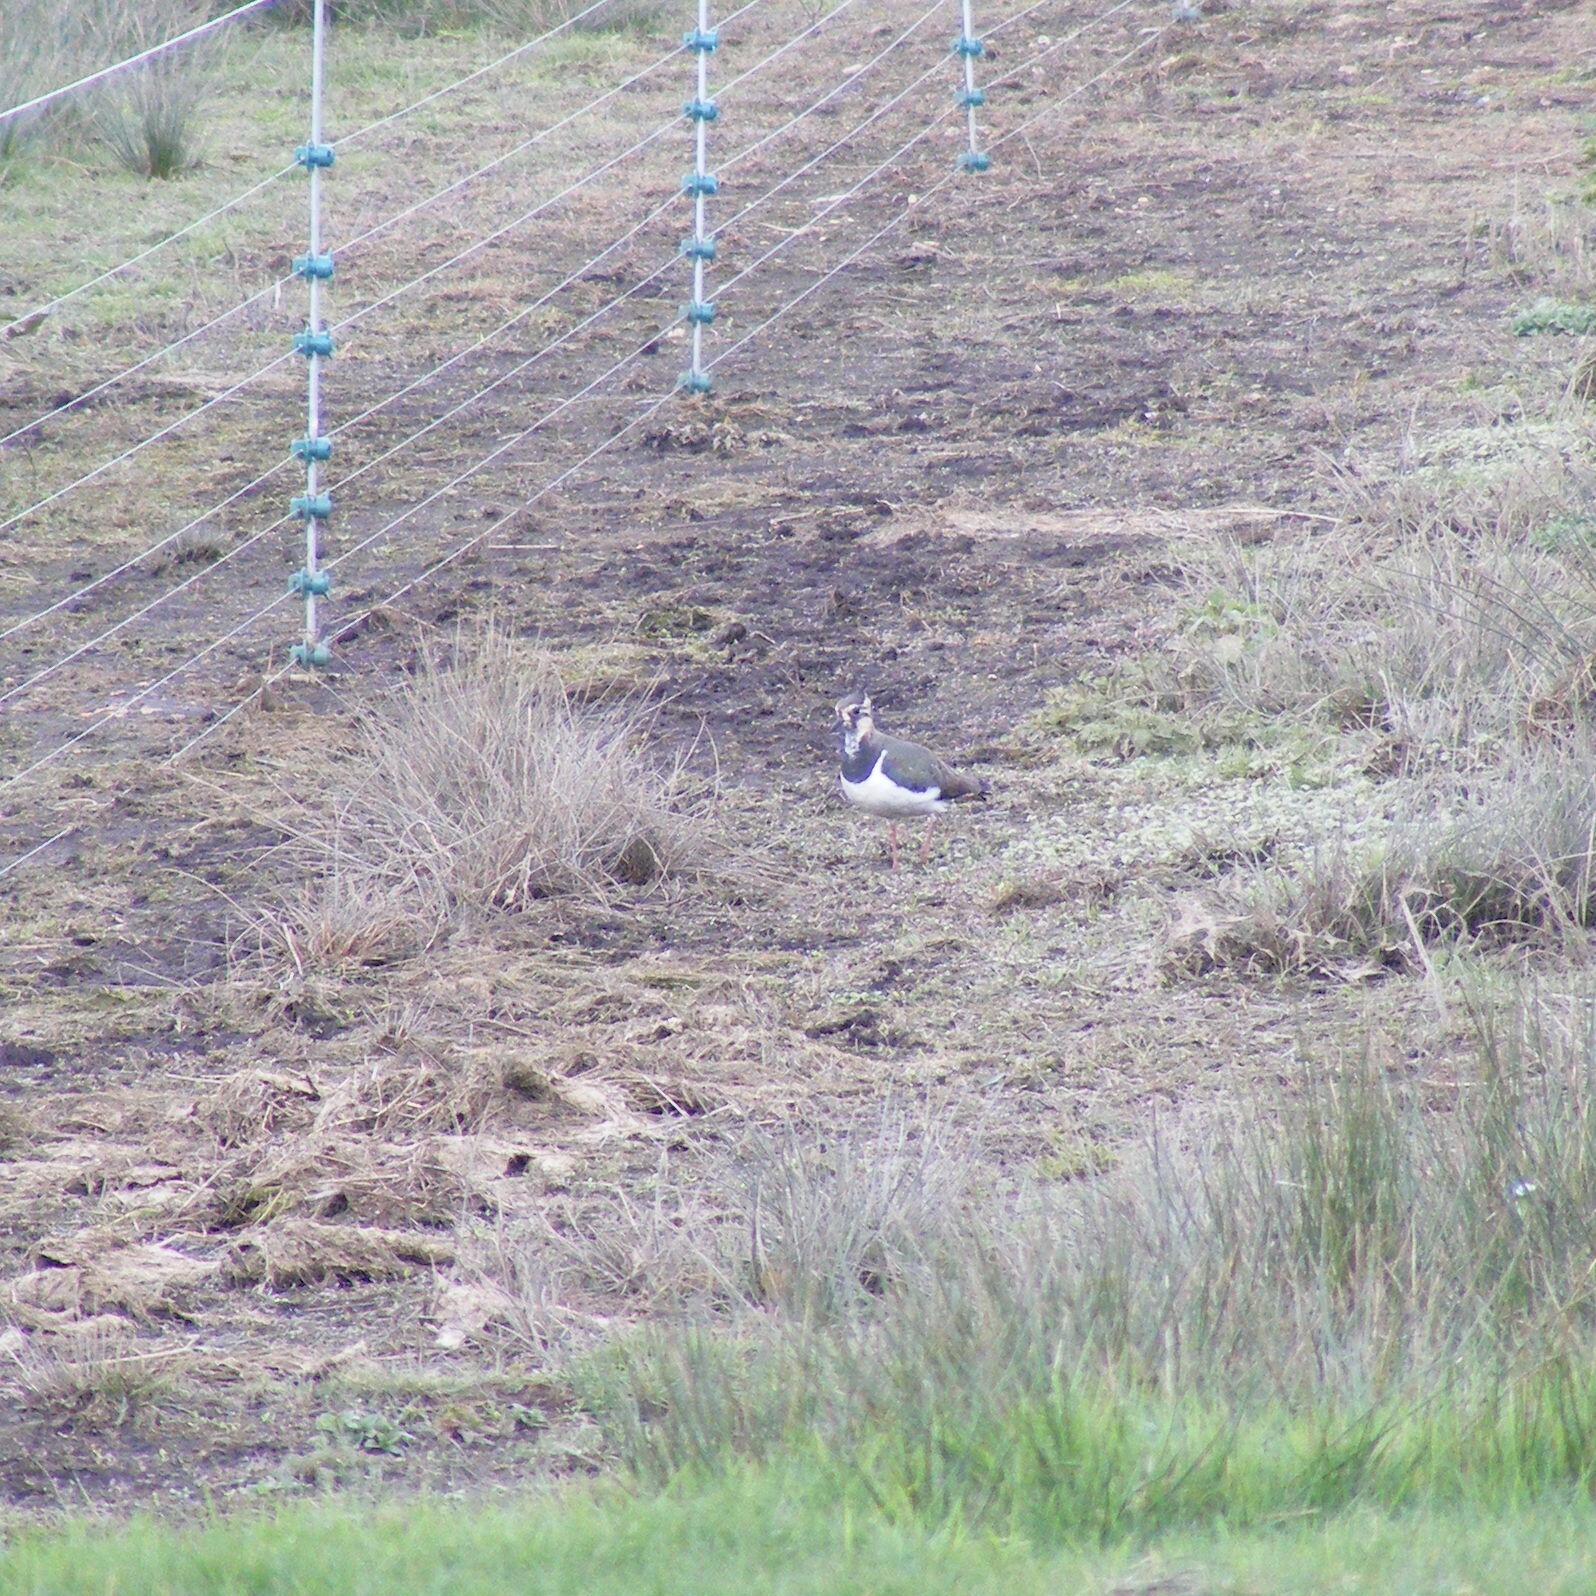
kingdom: Animalia
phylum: Chordata
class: Aves
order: Charadriiformes
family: Charadriidae
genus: Vanellus
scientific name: Vanellus vanellus
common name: Northern lapwing
